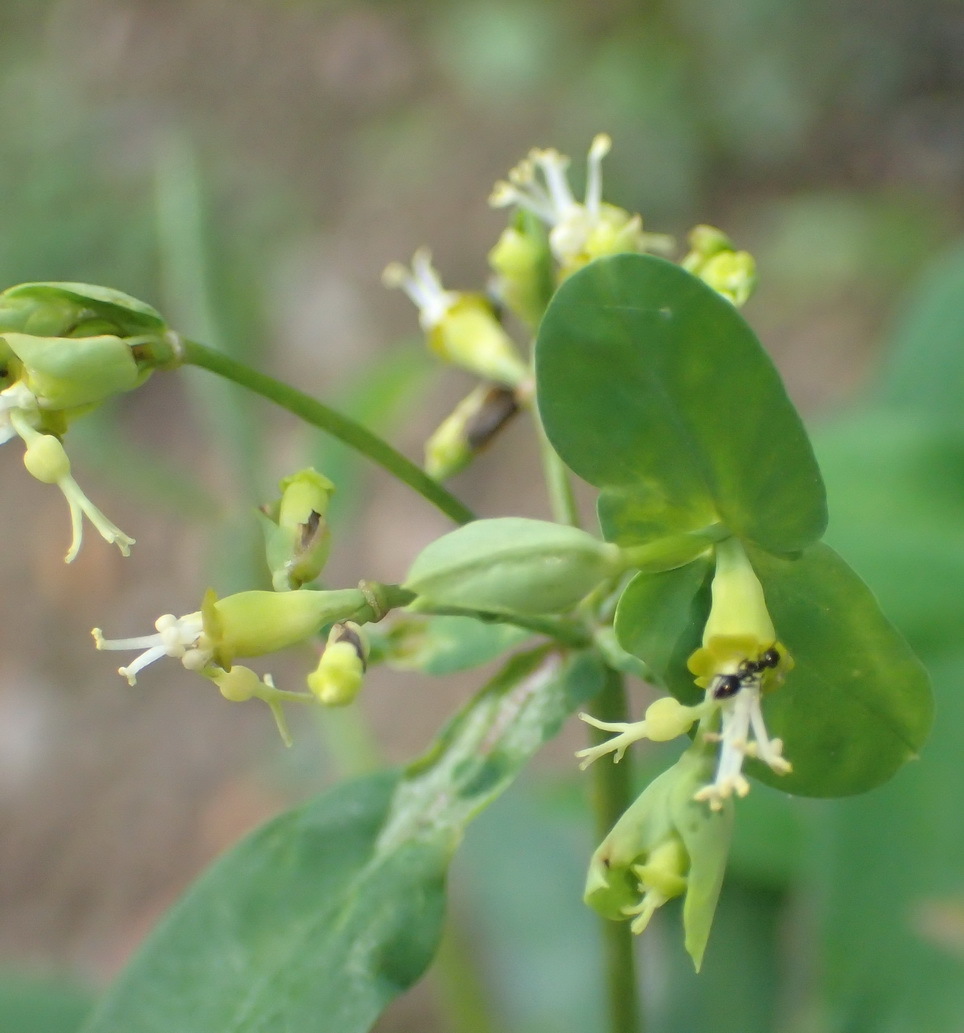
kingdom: Plantae
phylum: Tracheophyta
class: Magnoliopsida
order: Malpighiales
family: Euphorbiaceae
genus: Euphorbia
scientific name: Euphorbia kraussiana
